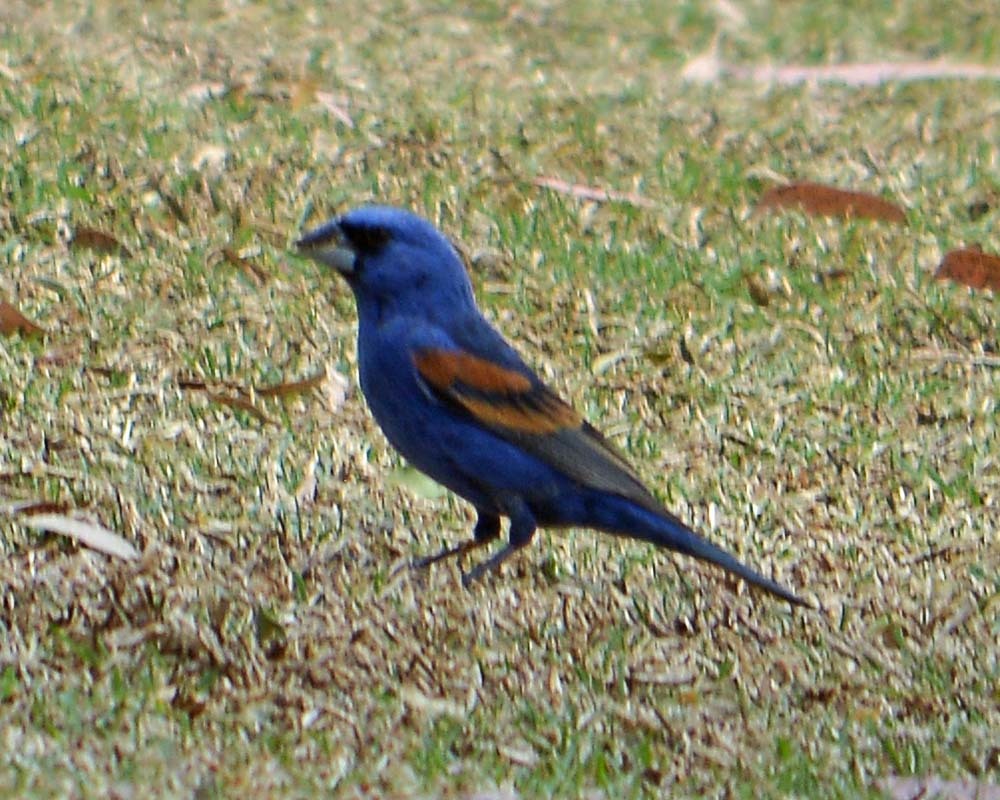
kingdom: Animalia
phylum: Chordata
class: Aves
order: Passeriformes
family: Cardinalidae
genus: Passerina
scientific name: Passerina caerulea
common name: Blue grosbeak
